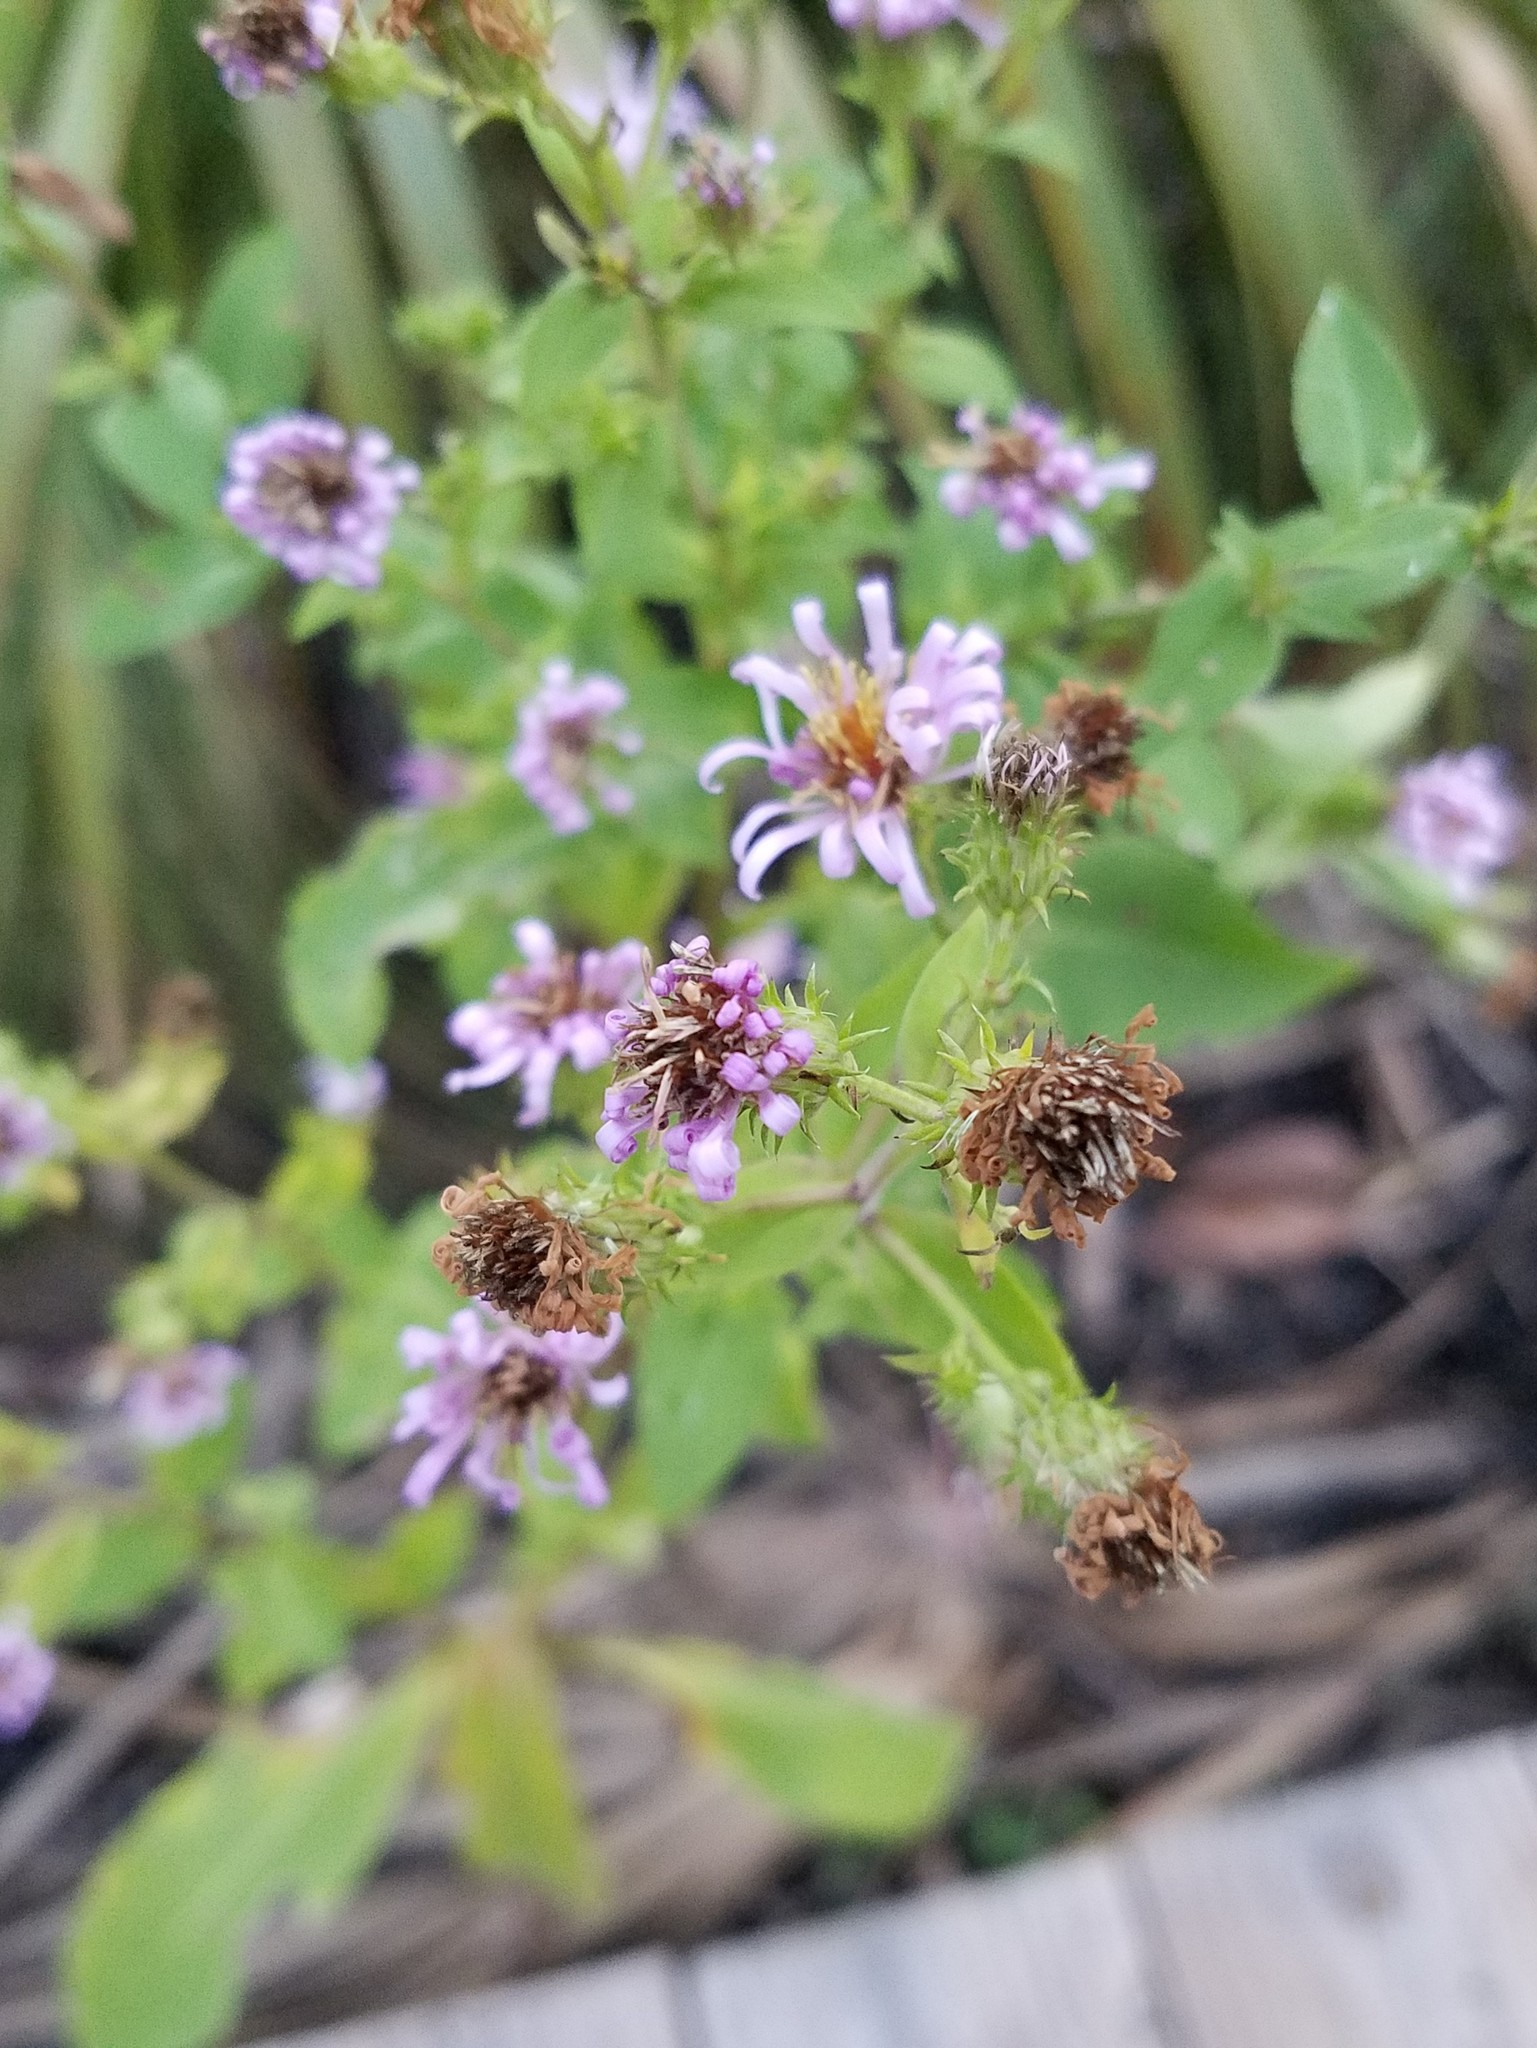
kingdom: Plantae
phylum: Tracheophyta
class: Magnoliopsida
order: Asterales
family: Asteraceae
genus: Ampelaster
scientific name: Ampelaster carolinianus
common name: Climbing aster
